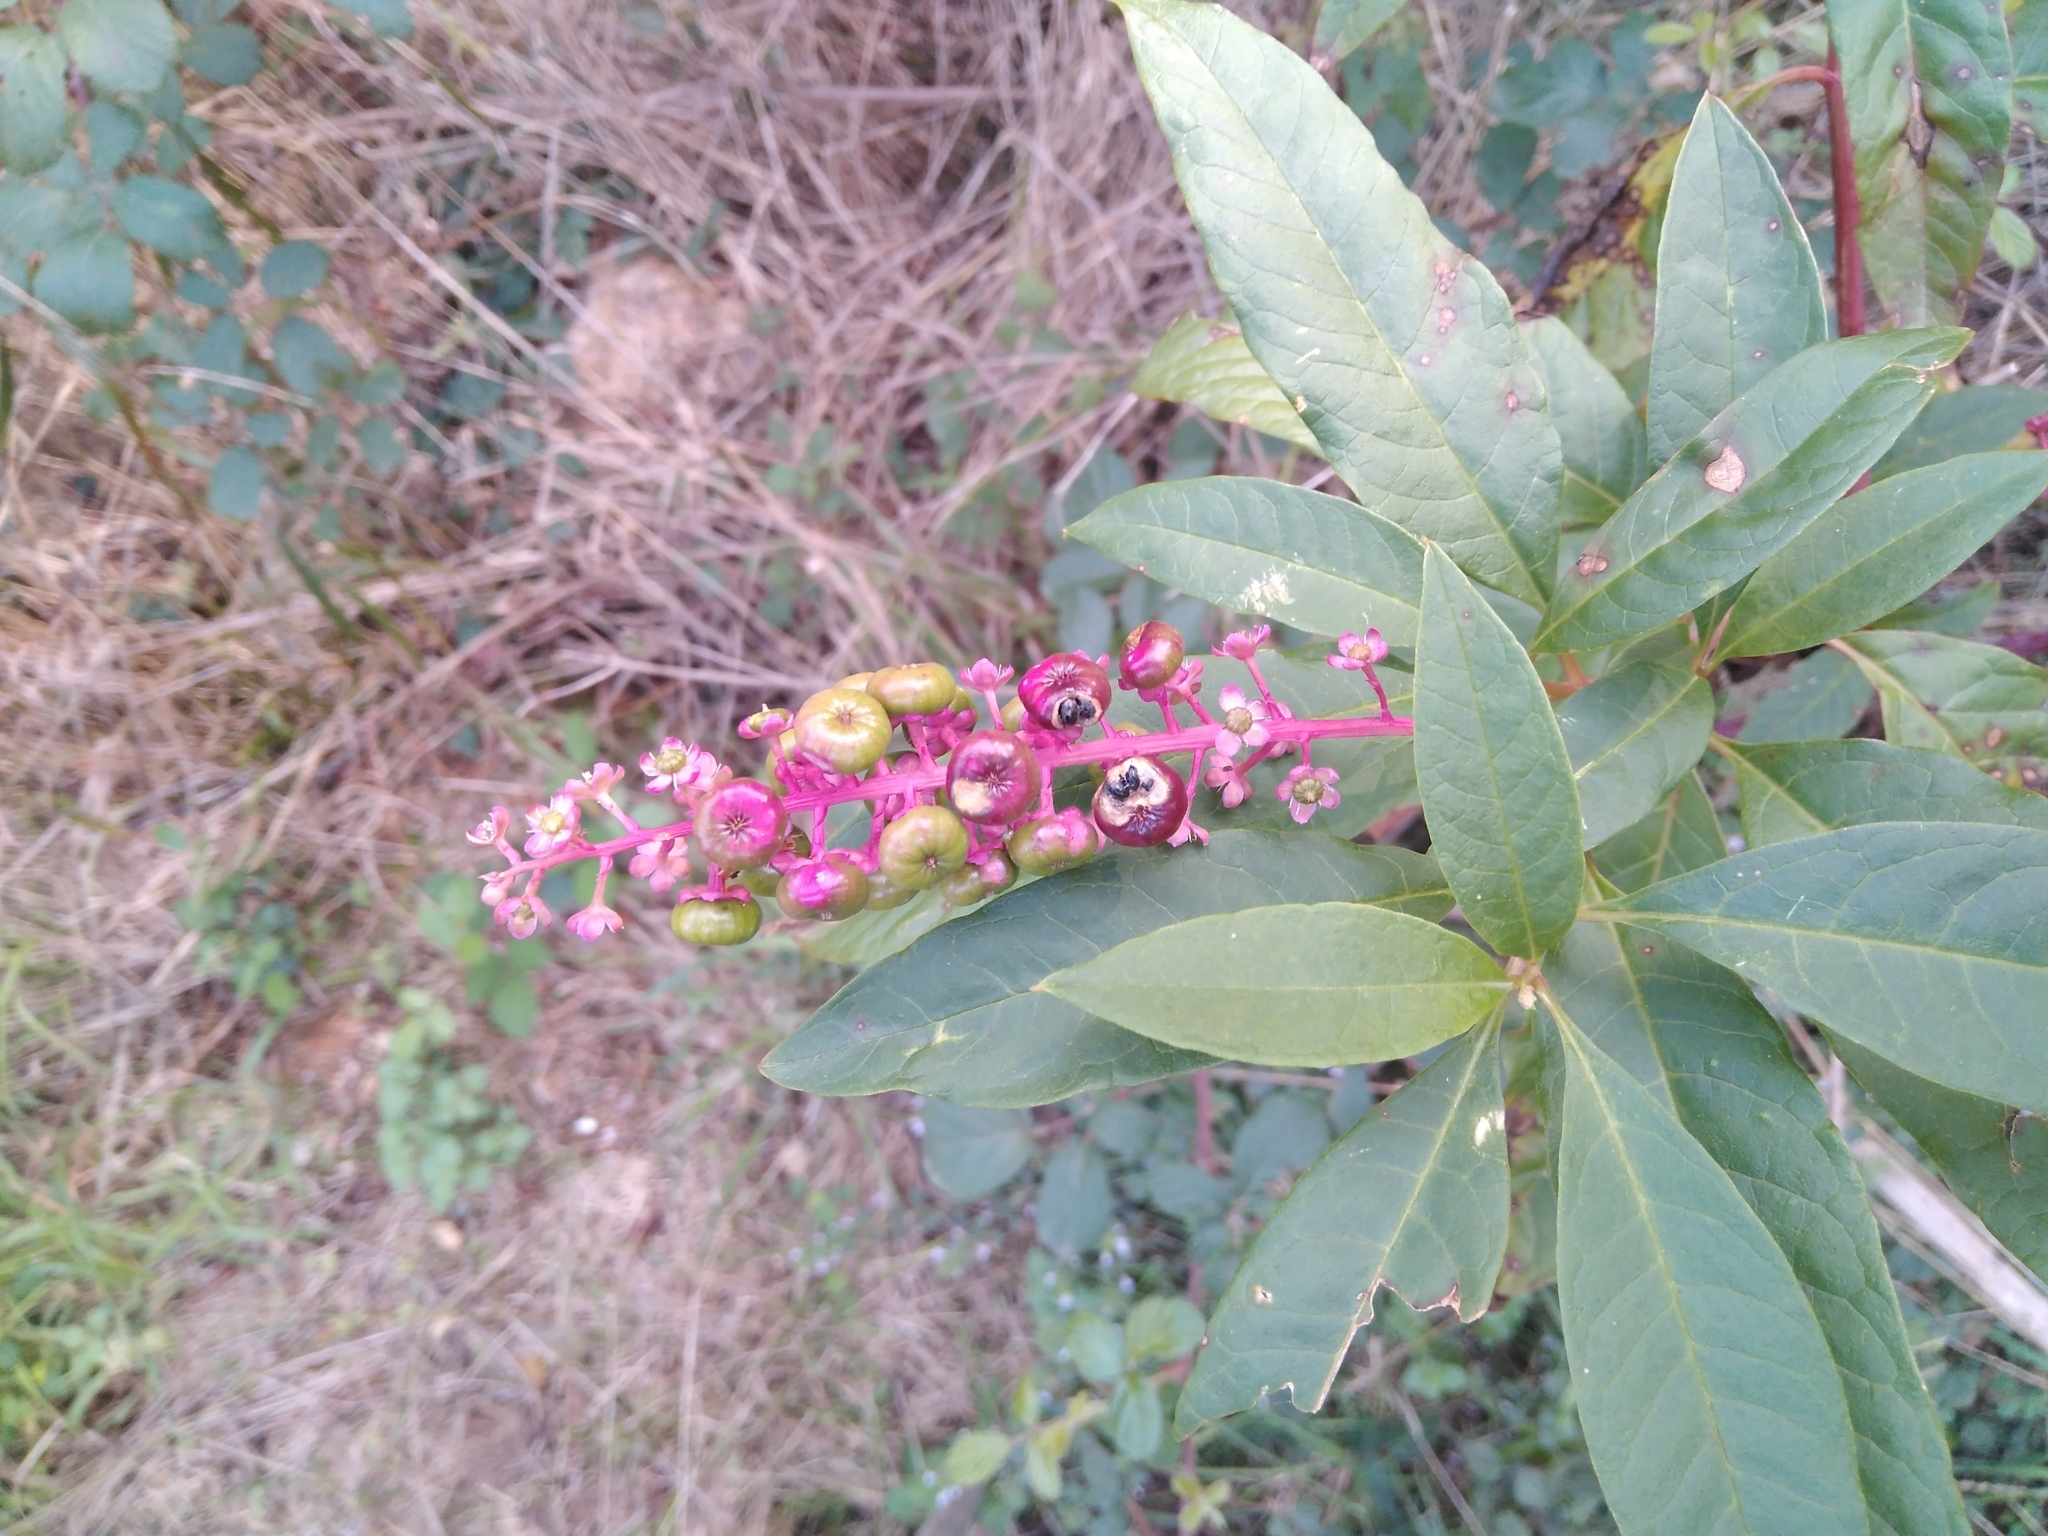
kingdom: Plantae
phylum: Tracheophyta
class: Magnoliopsida
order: Caryophyllales
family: Phytolaccaceae
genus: Phytolacca
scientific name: Phytolacca americana
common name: American pokeweed
